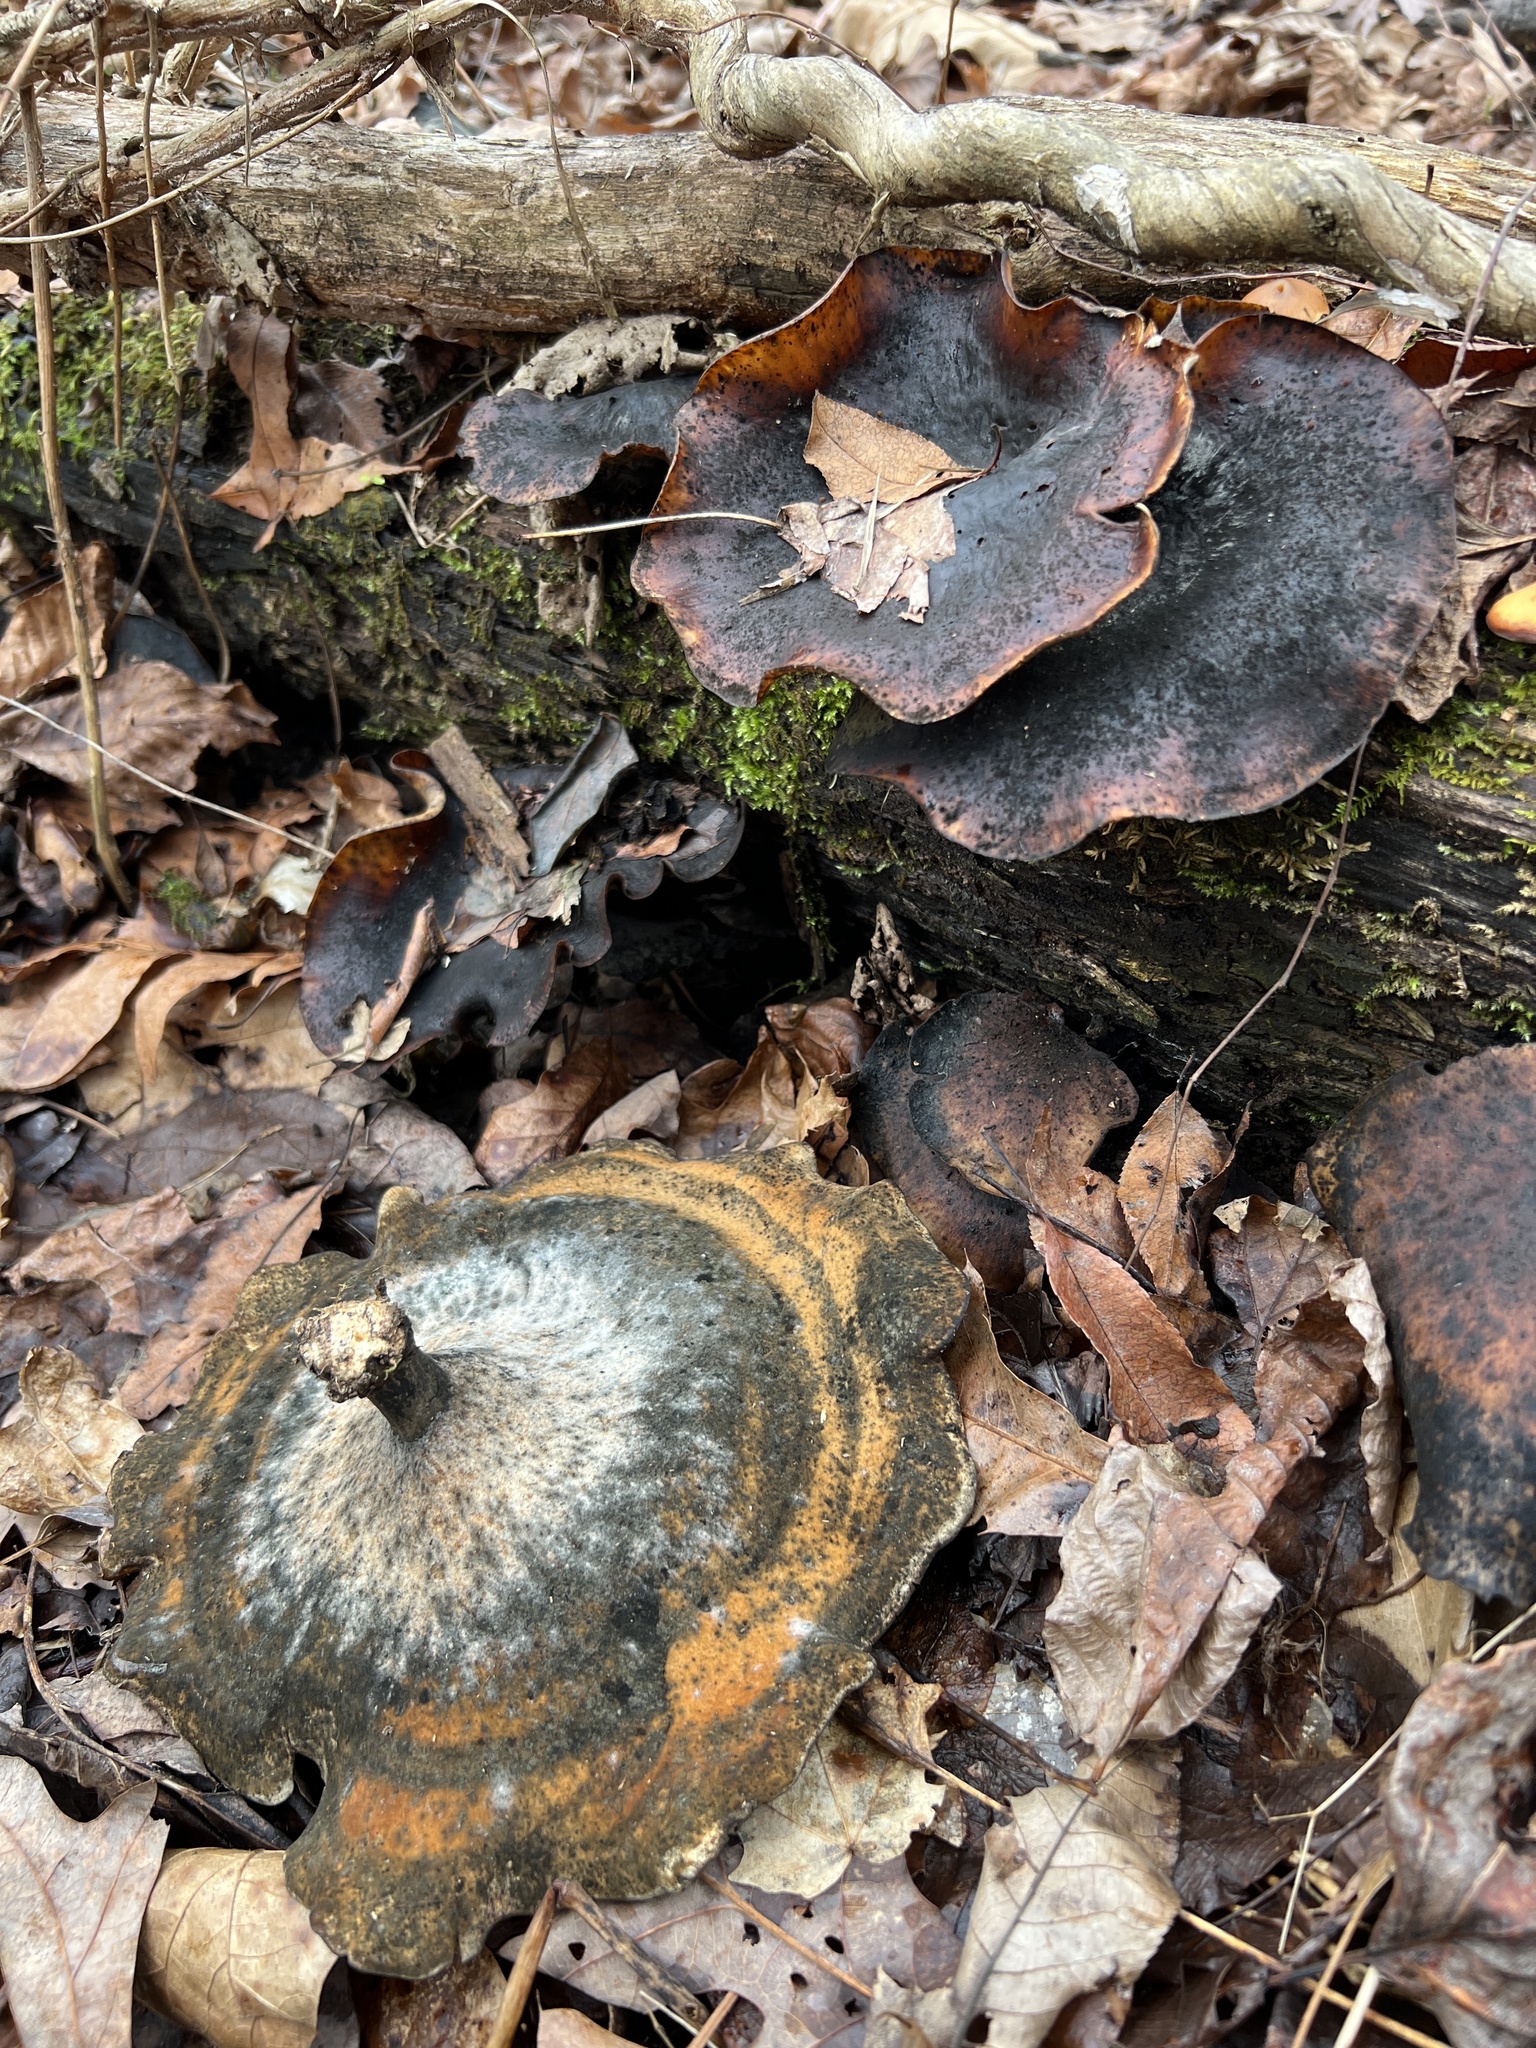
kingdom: Fungi
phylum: Basidiomycota
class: Agaricomycetes
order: Polyporales
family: Polyporaceae
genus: Picipes
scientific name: Picipes badius
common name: Bay polypore
